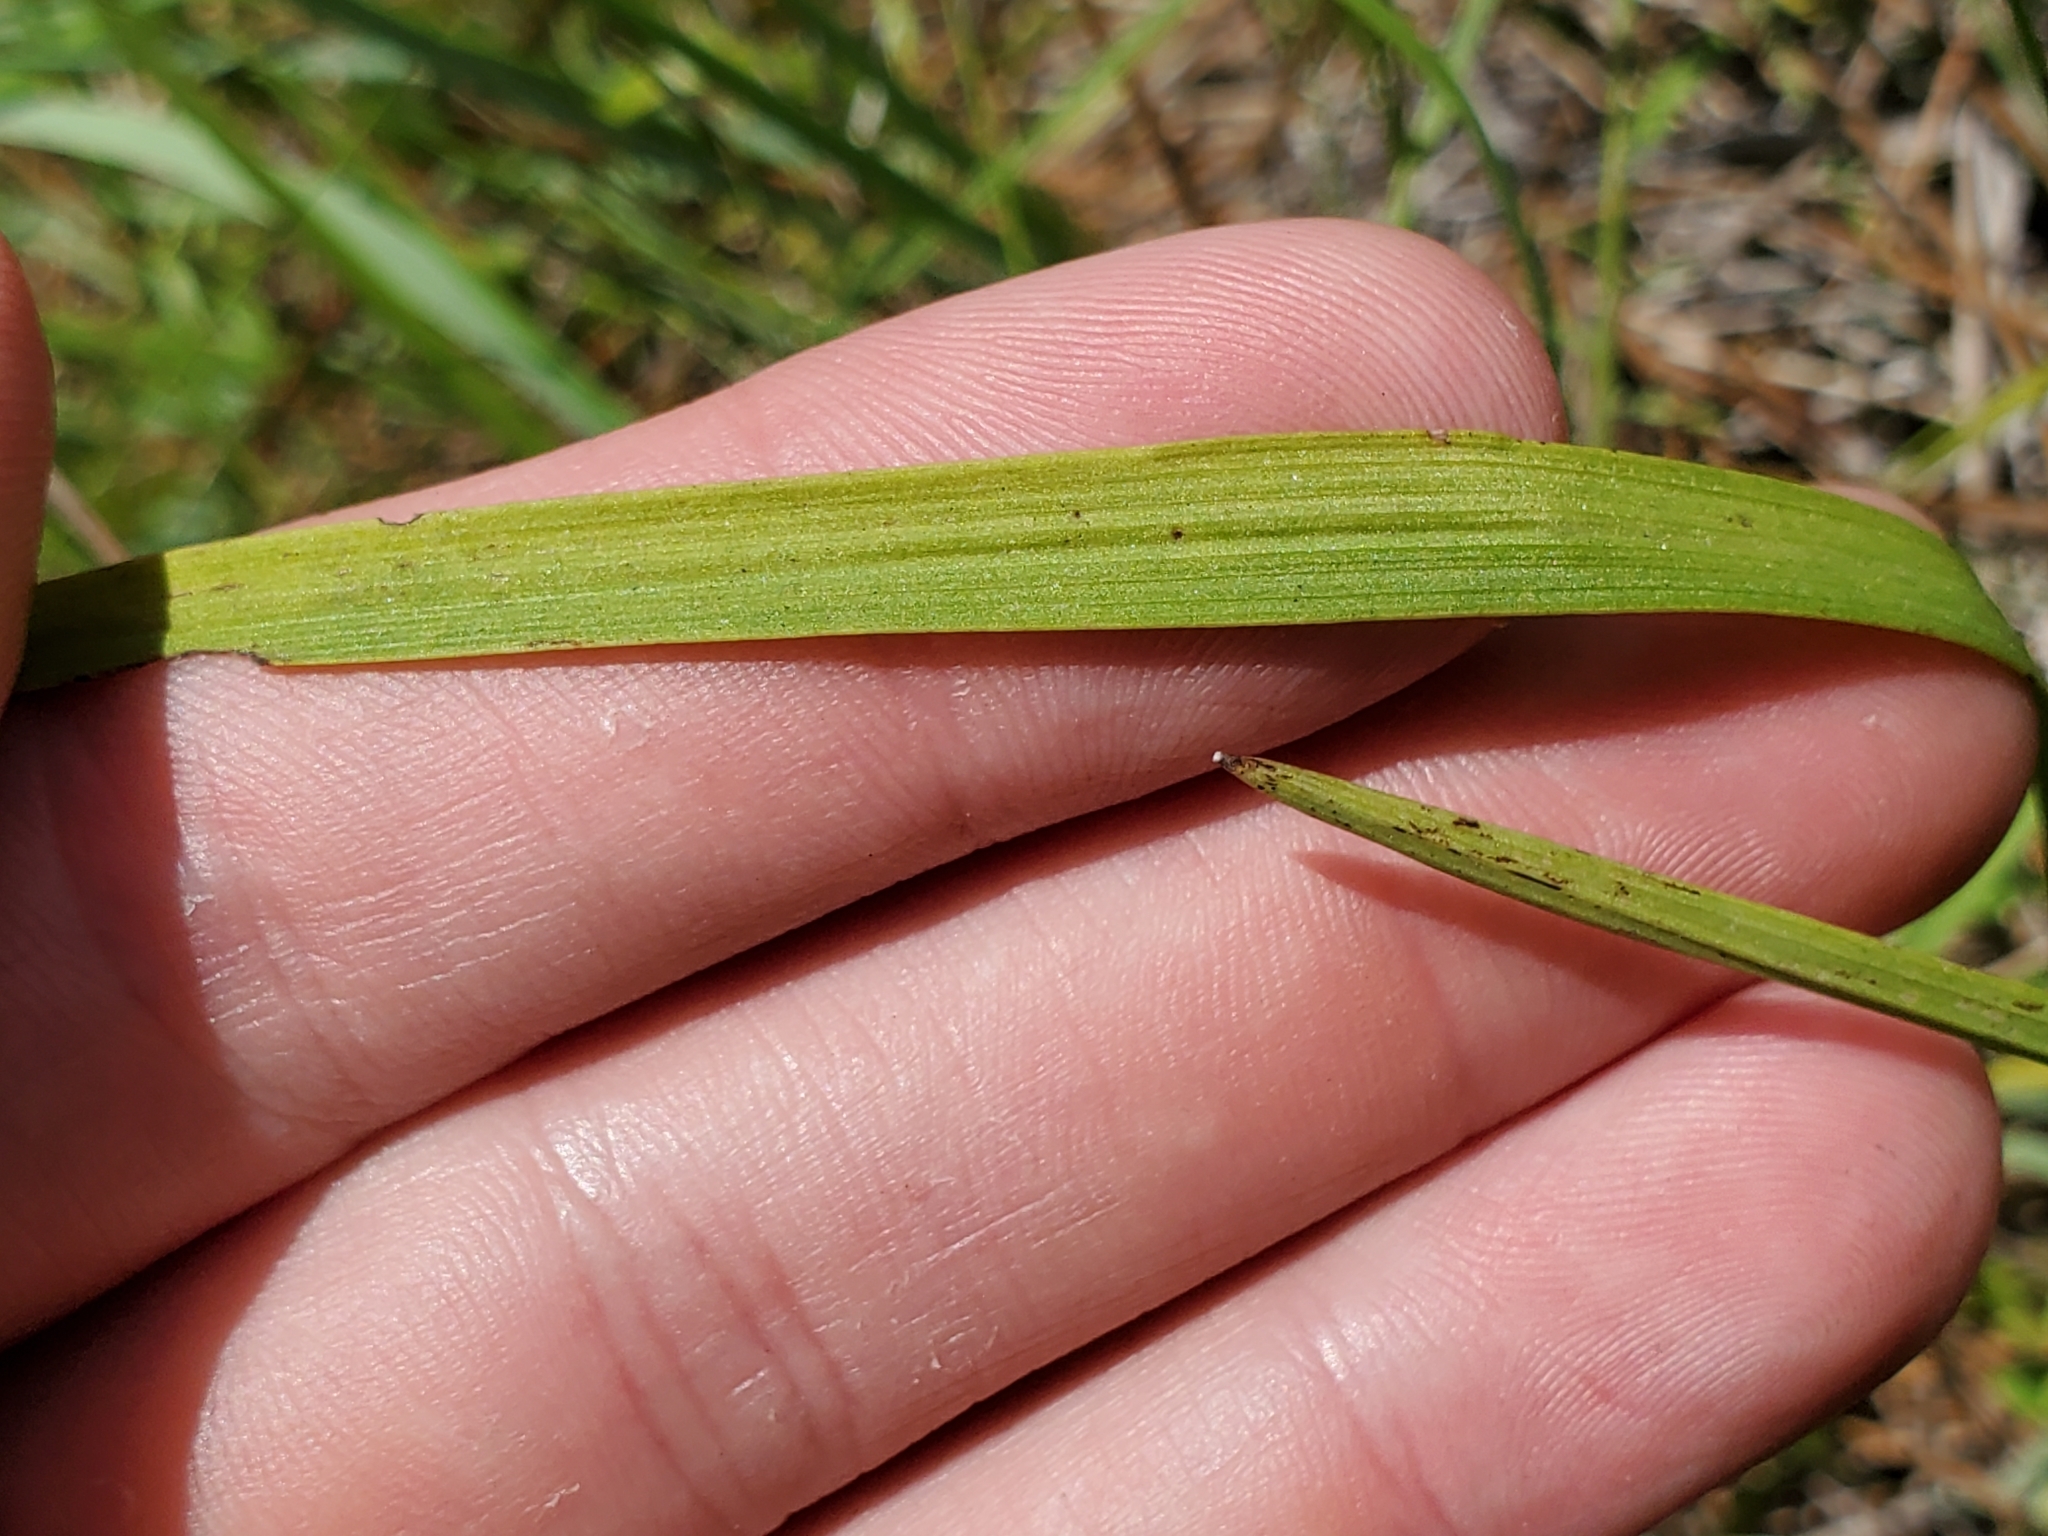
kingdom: Plantae
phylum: Tracheophyta
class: Liliopsida
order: Asparagales
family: Orchidaceae
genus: Calopogon
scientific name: Calopogon tuberosus
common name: Grass-pink
